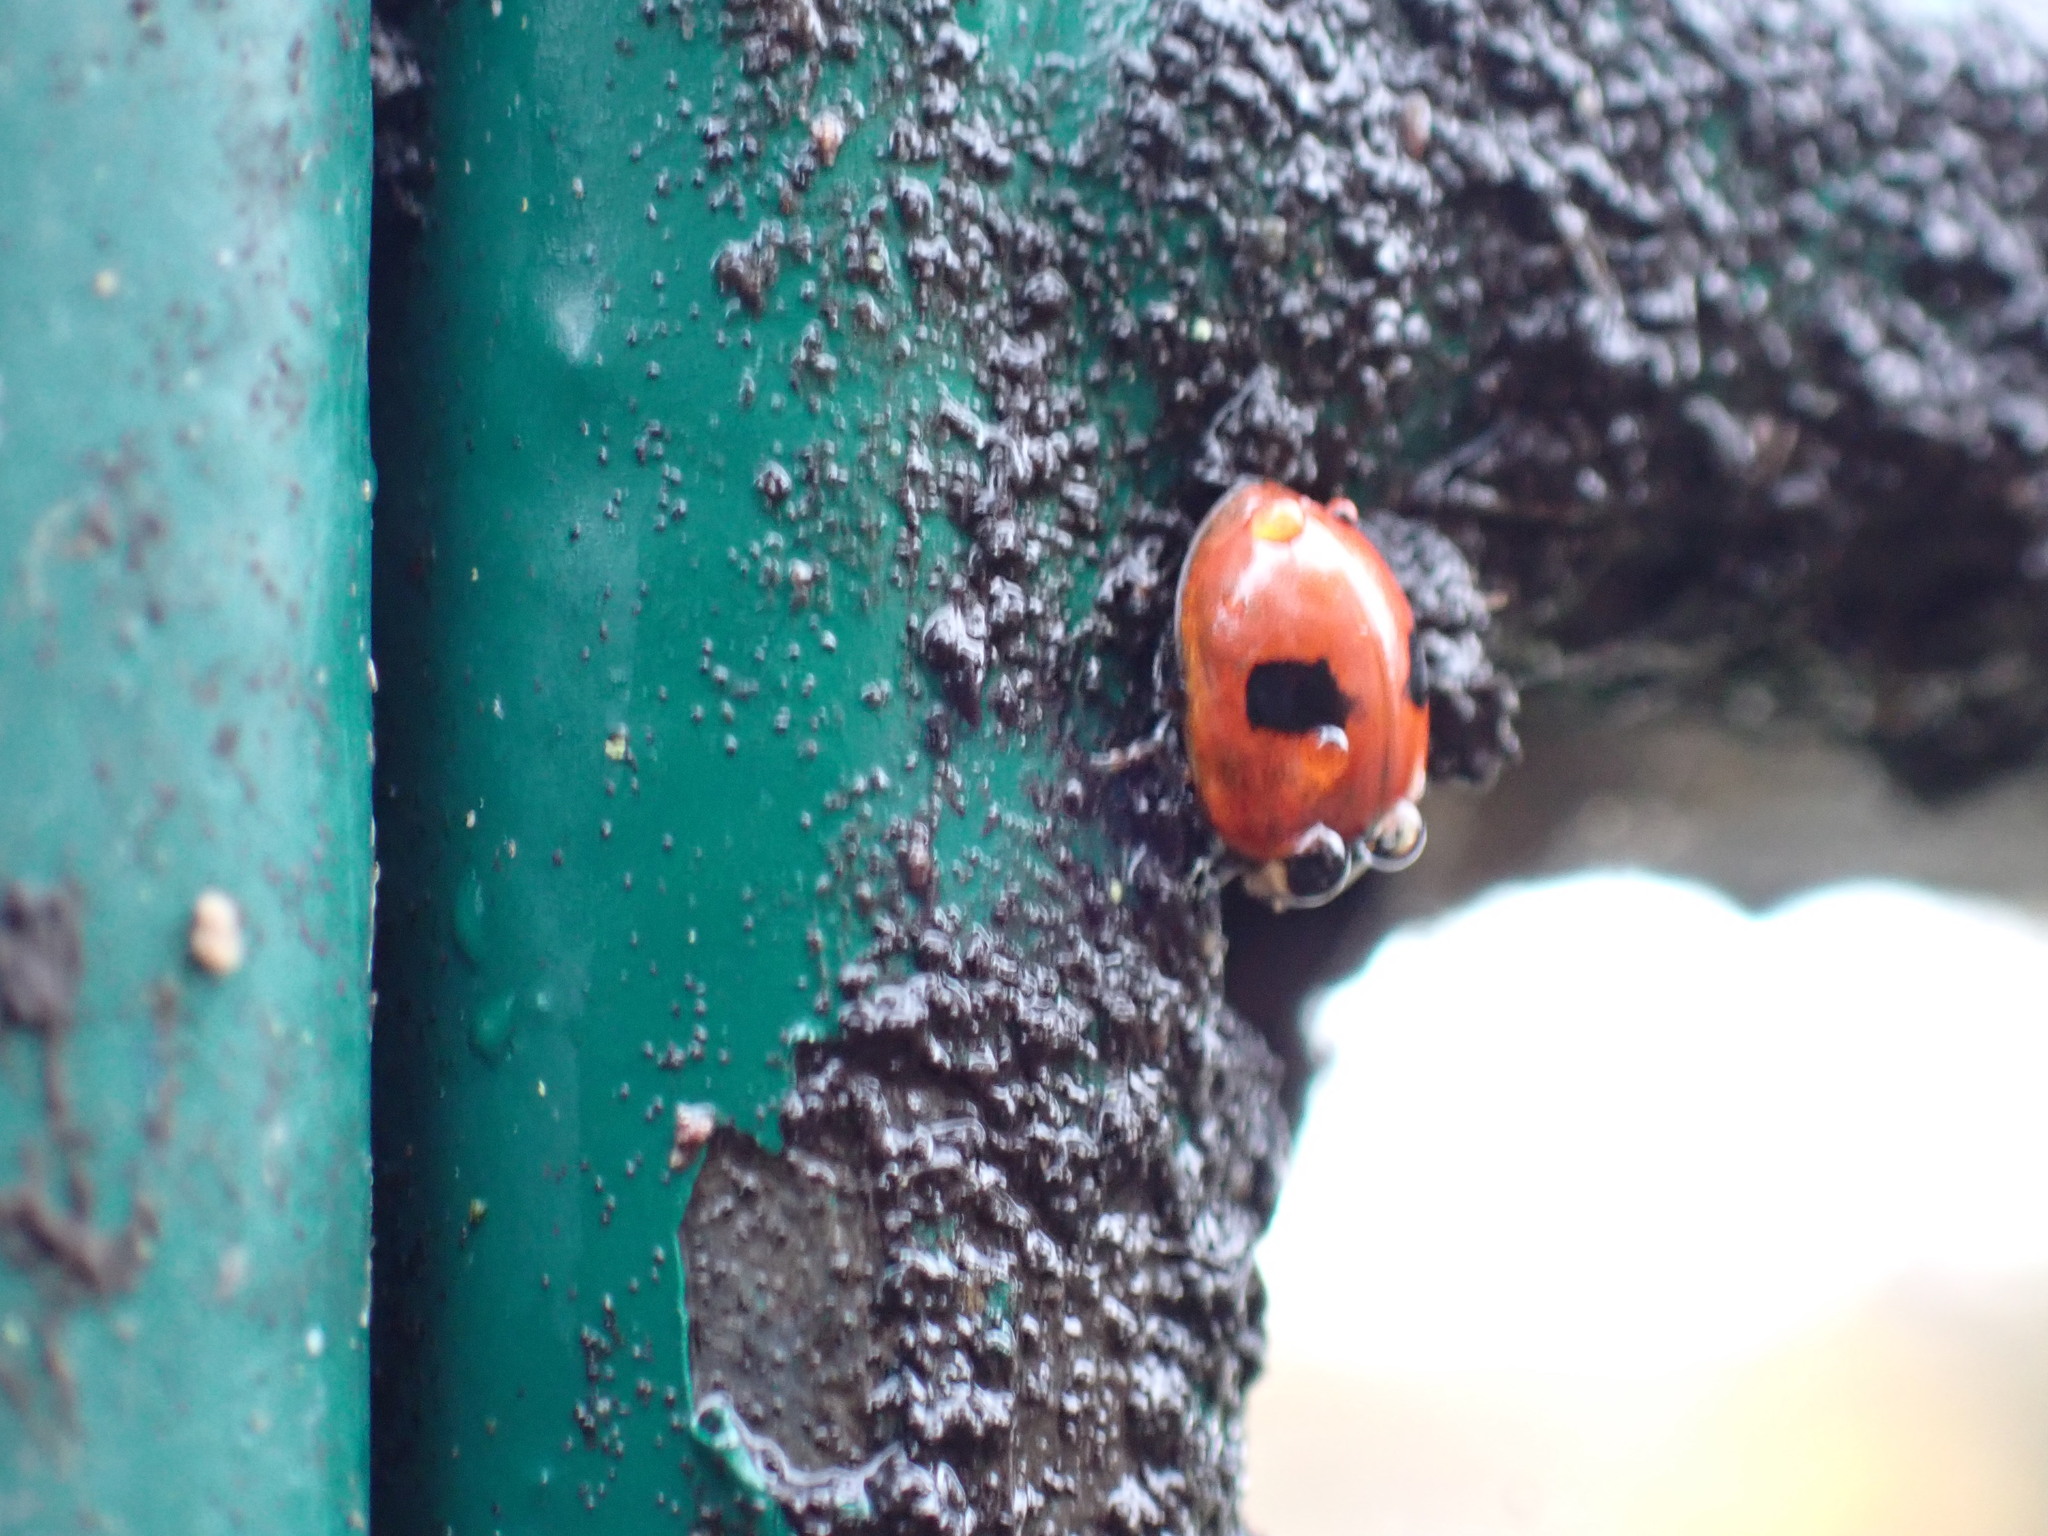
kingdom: Animalia
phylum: Arthropoda
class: Insecta
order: Coleoptera
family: Coccinellidae
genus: Adalia
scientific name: Adalia bipunctata
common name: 2-spot ladybird
